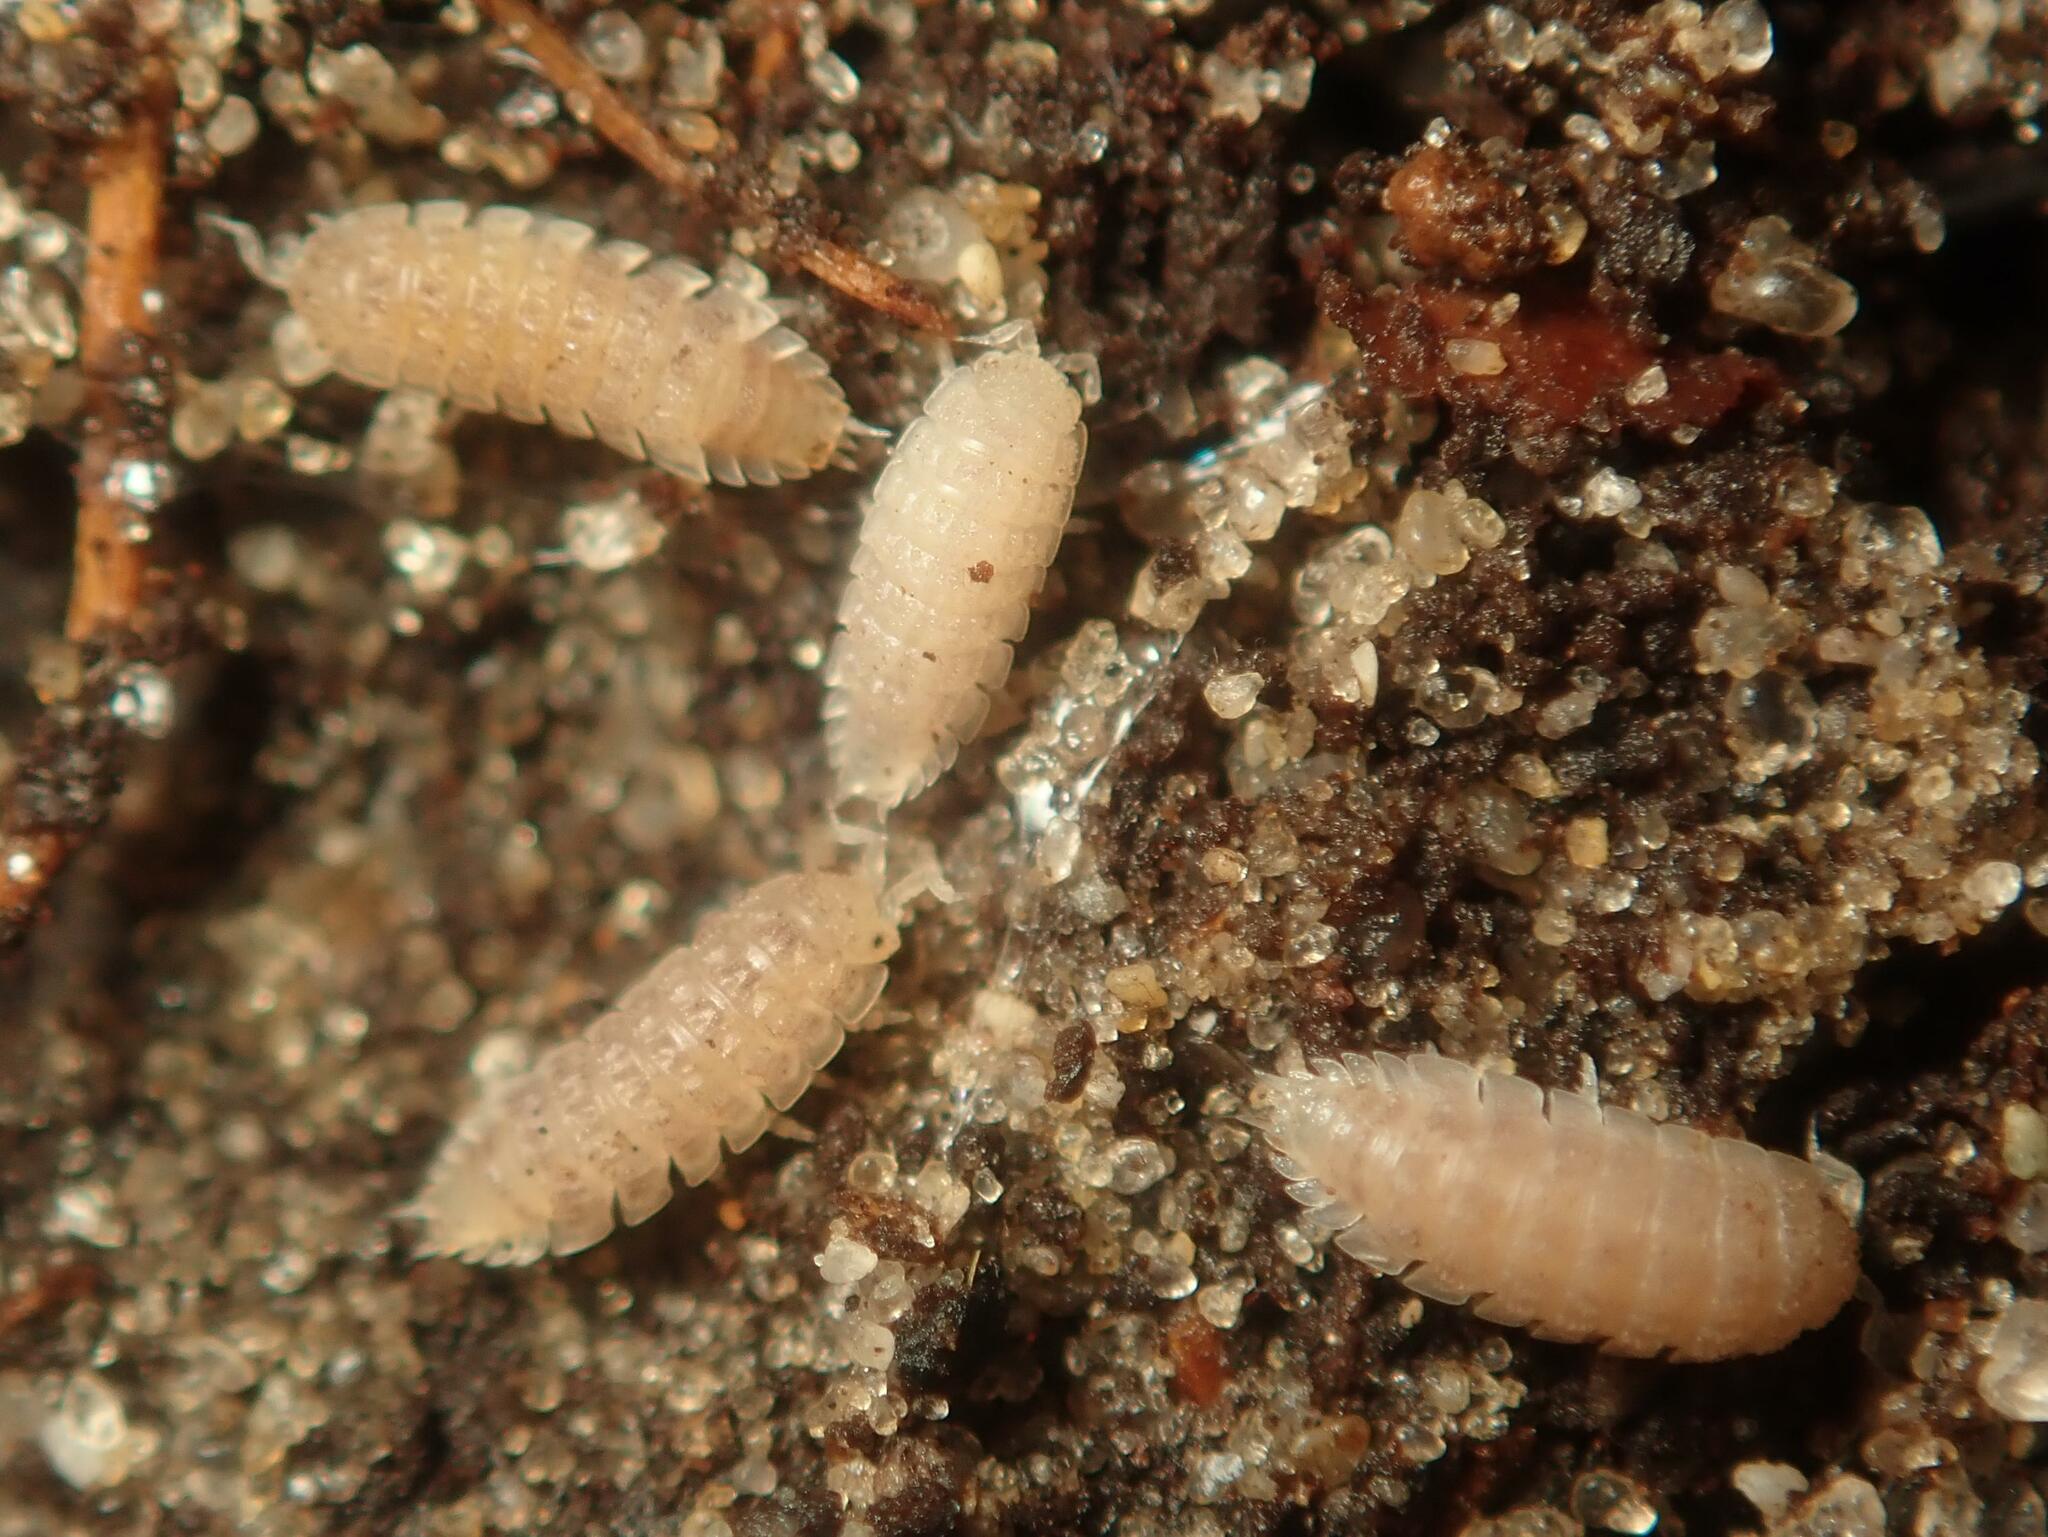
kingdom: Animalia
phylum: Arthropoda
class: Malacostraca
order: Isopoda
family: Trichoniscidae
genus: Haplophthalmus
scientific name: Haplophthalmus danicus
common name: Pillbug
